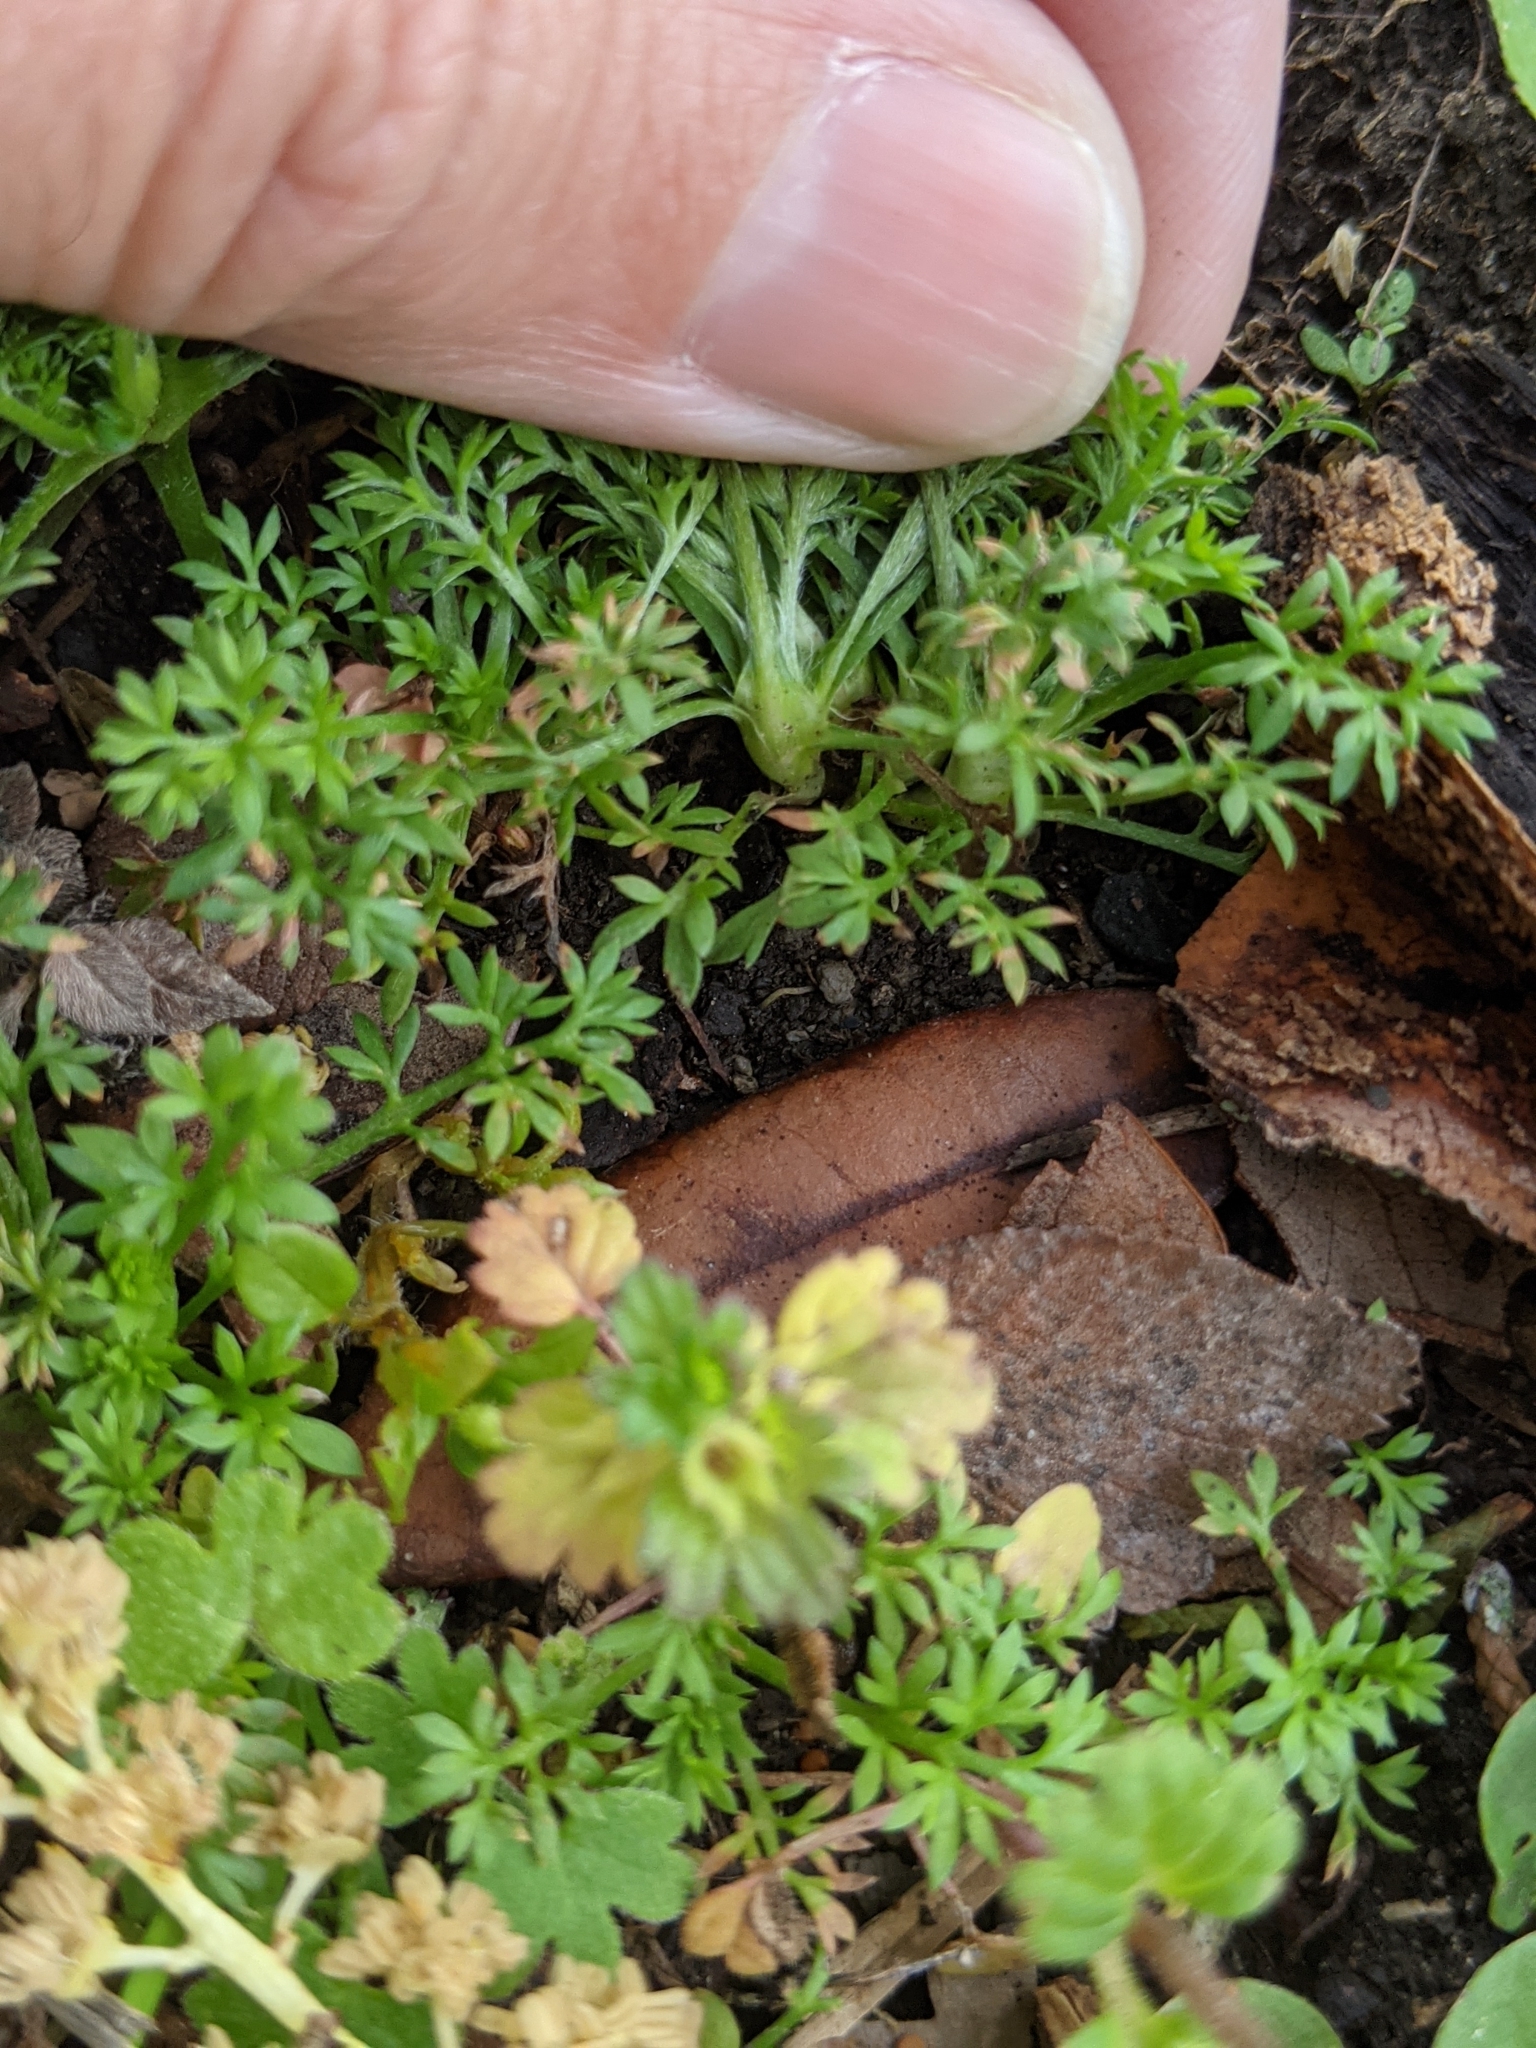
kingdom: Plantae
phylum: Tracheophyta
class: Magnoliopsida
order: Asterales
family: Asteraceae
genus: Soliva
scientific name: Soliva sessilis
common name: Field burrweed
